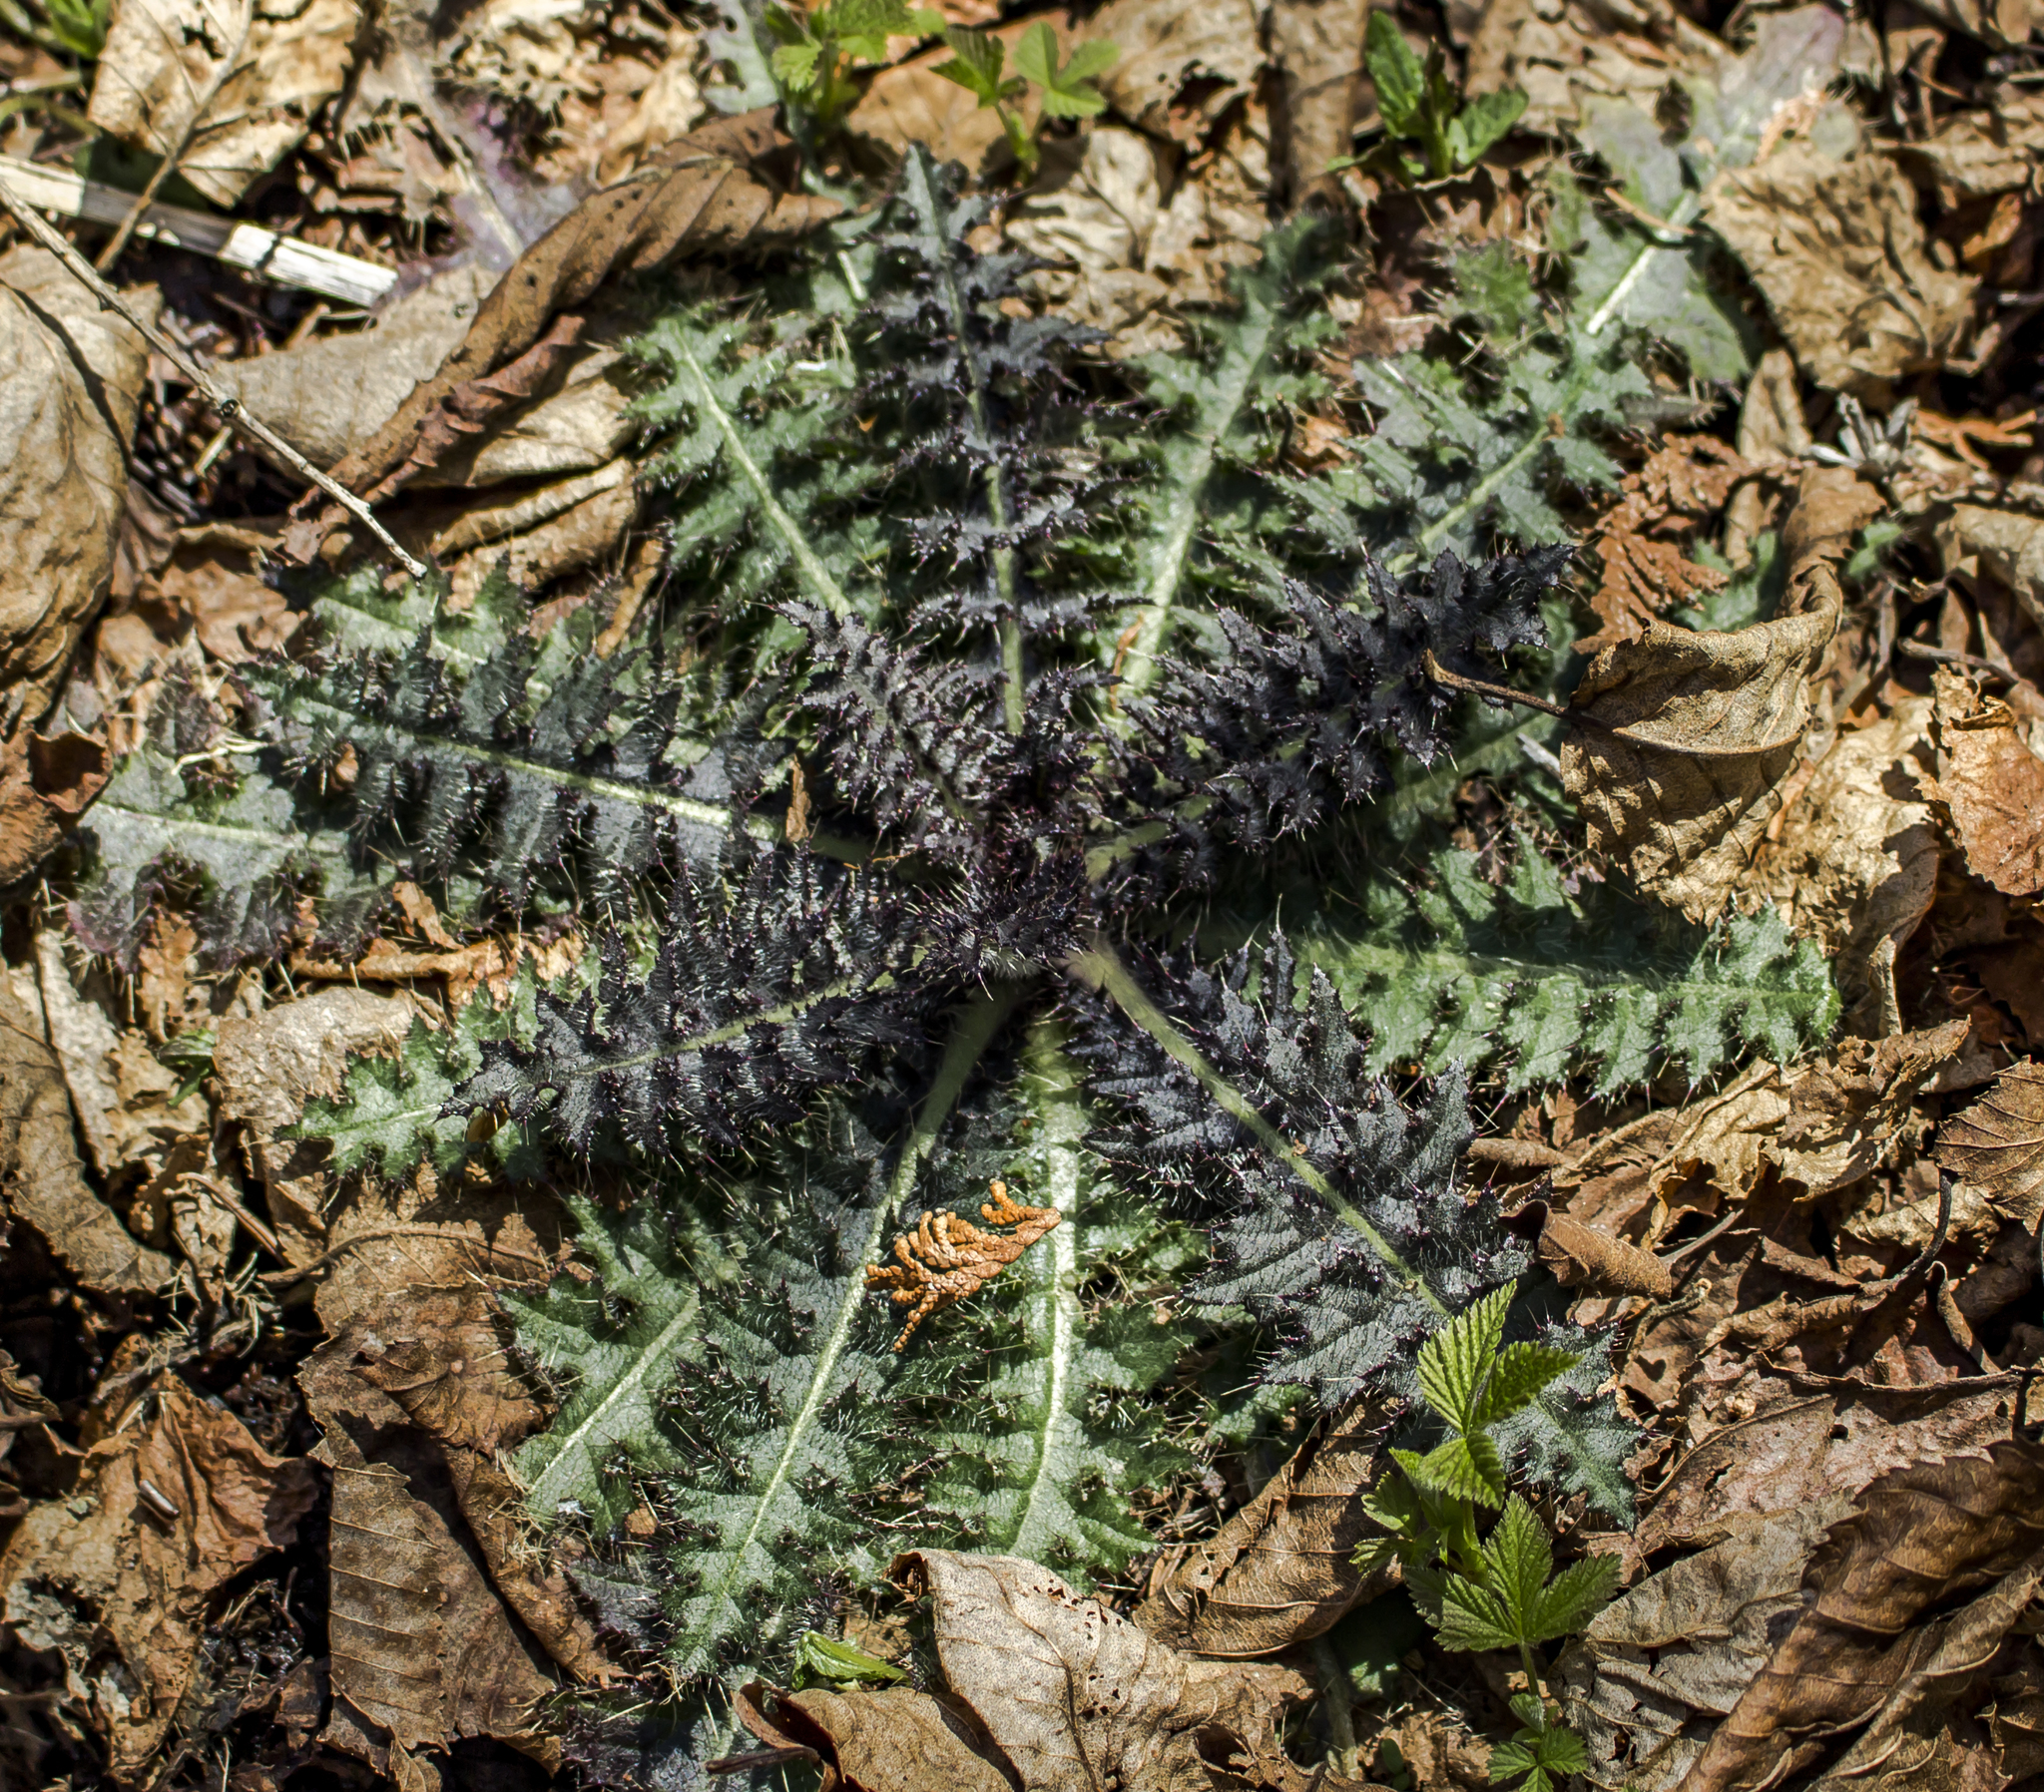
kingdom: Plantae
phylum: Tracheophyta
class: Magnoliopsida
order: Asterales
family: Asteraceae
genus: Cirsium
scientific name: Cirsium palustre
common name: Marsh thistle
